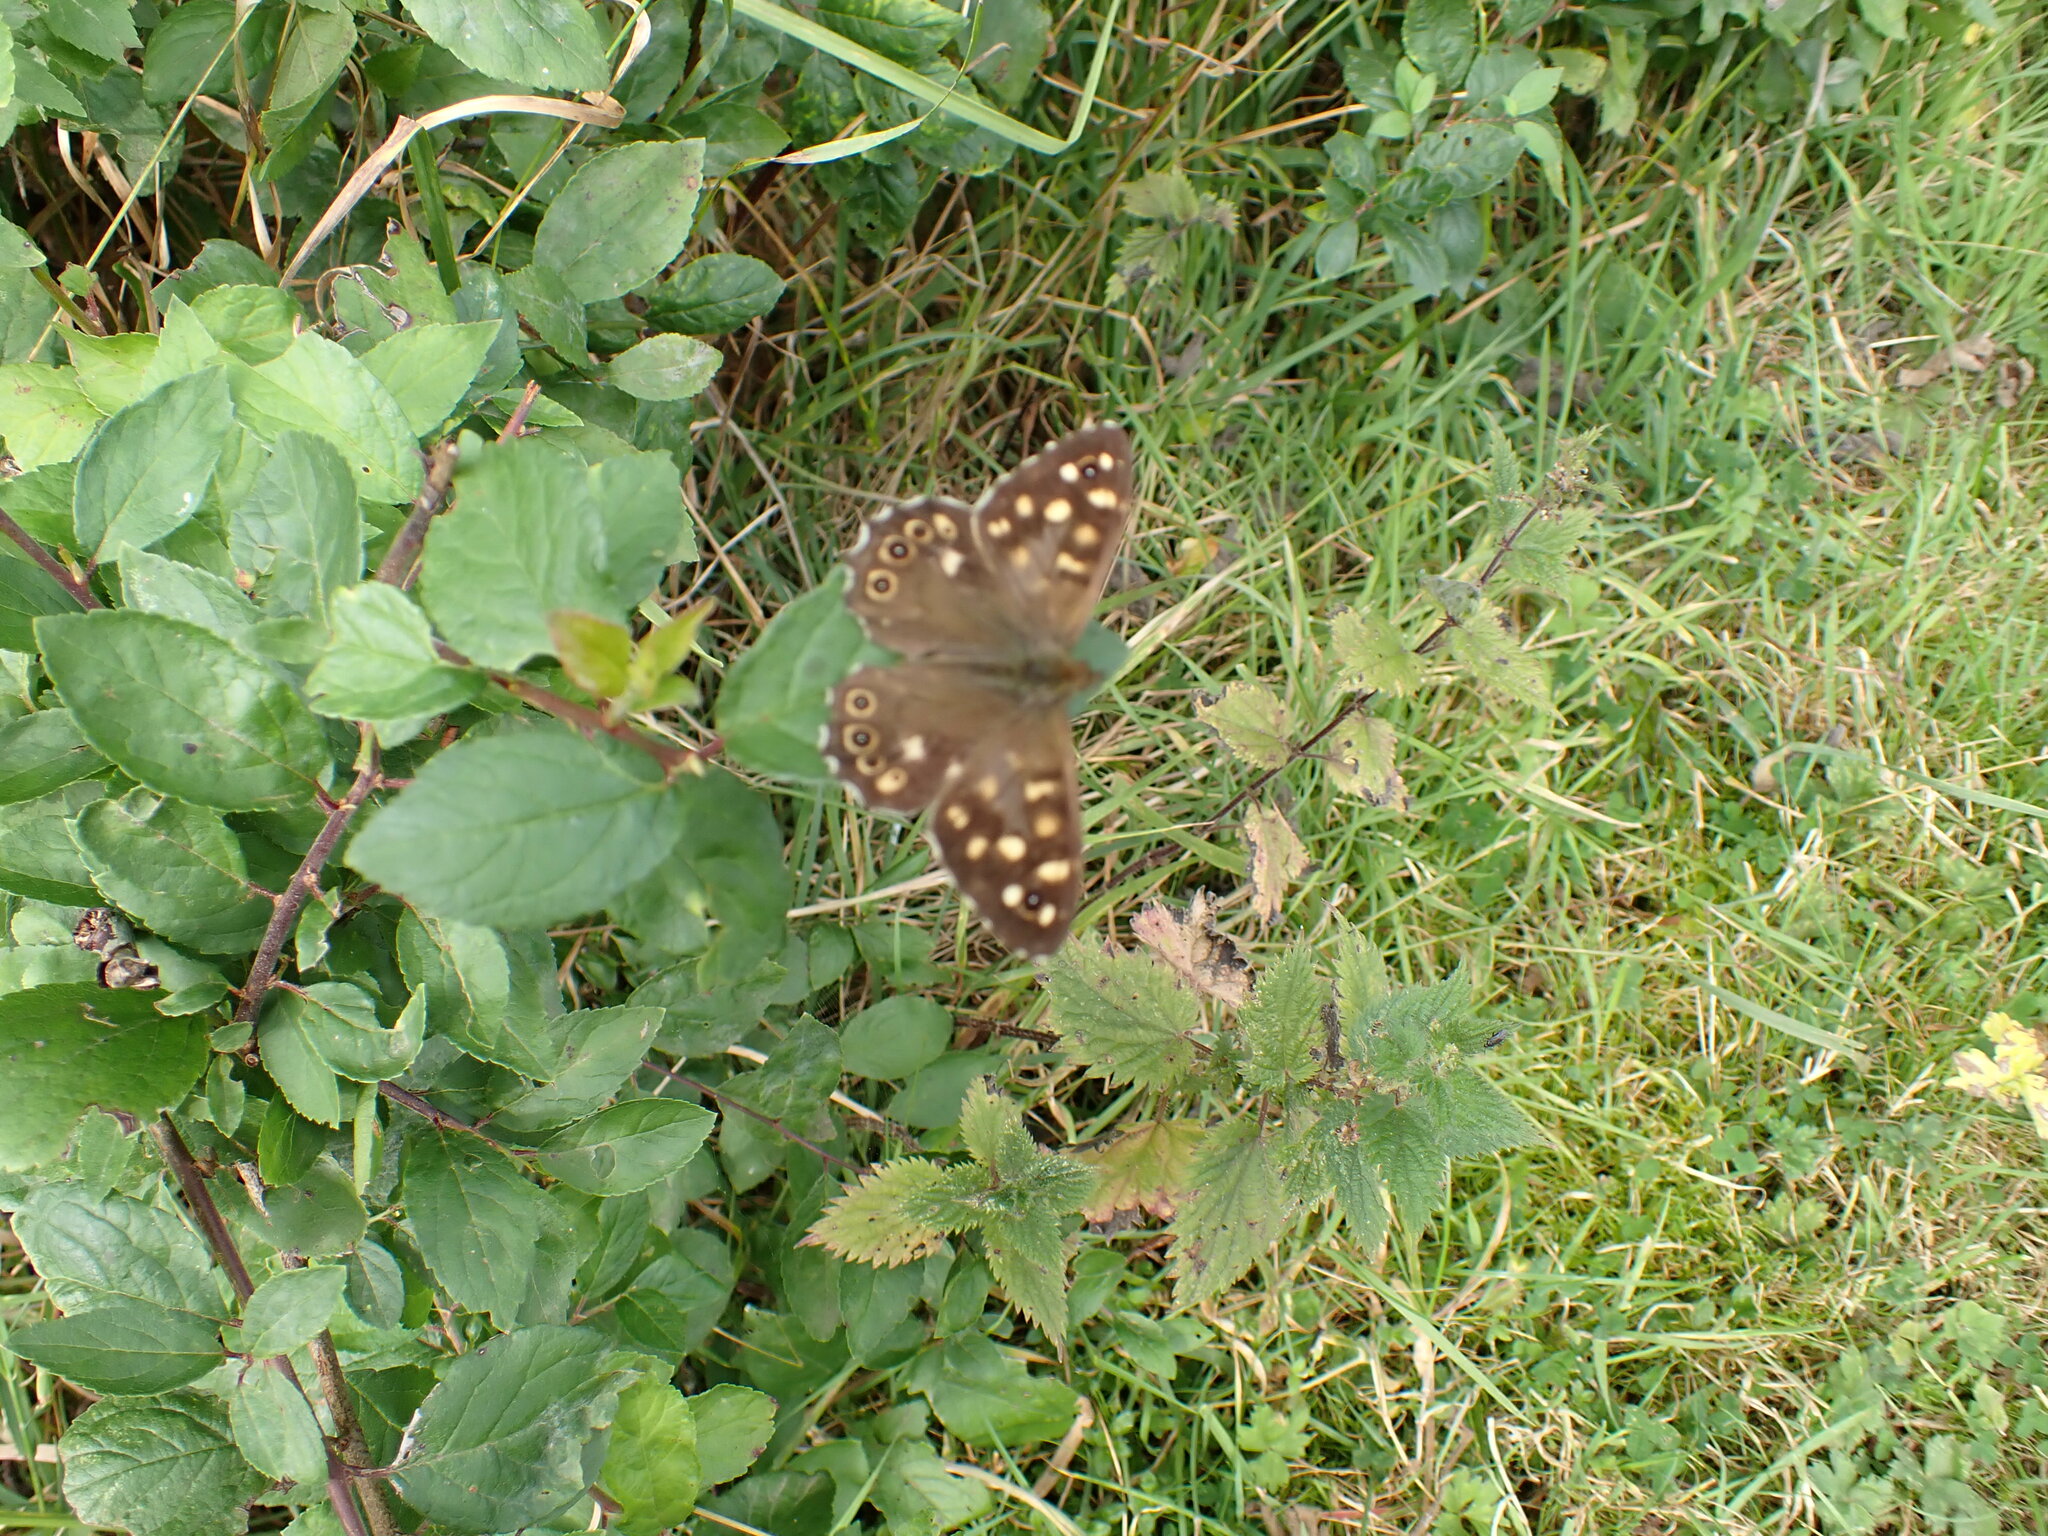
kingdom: Animalia
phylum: Arthropoda
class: Insecta
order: Lepidoptera
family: Nymphalidae
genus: Pararge
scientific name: Pararge aegeria
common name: Speckled wood
